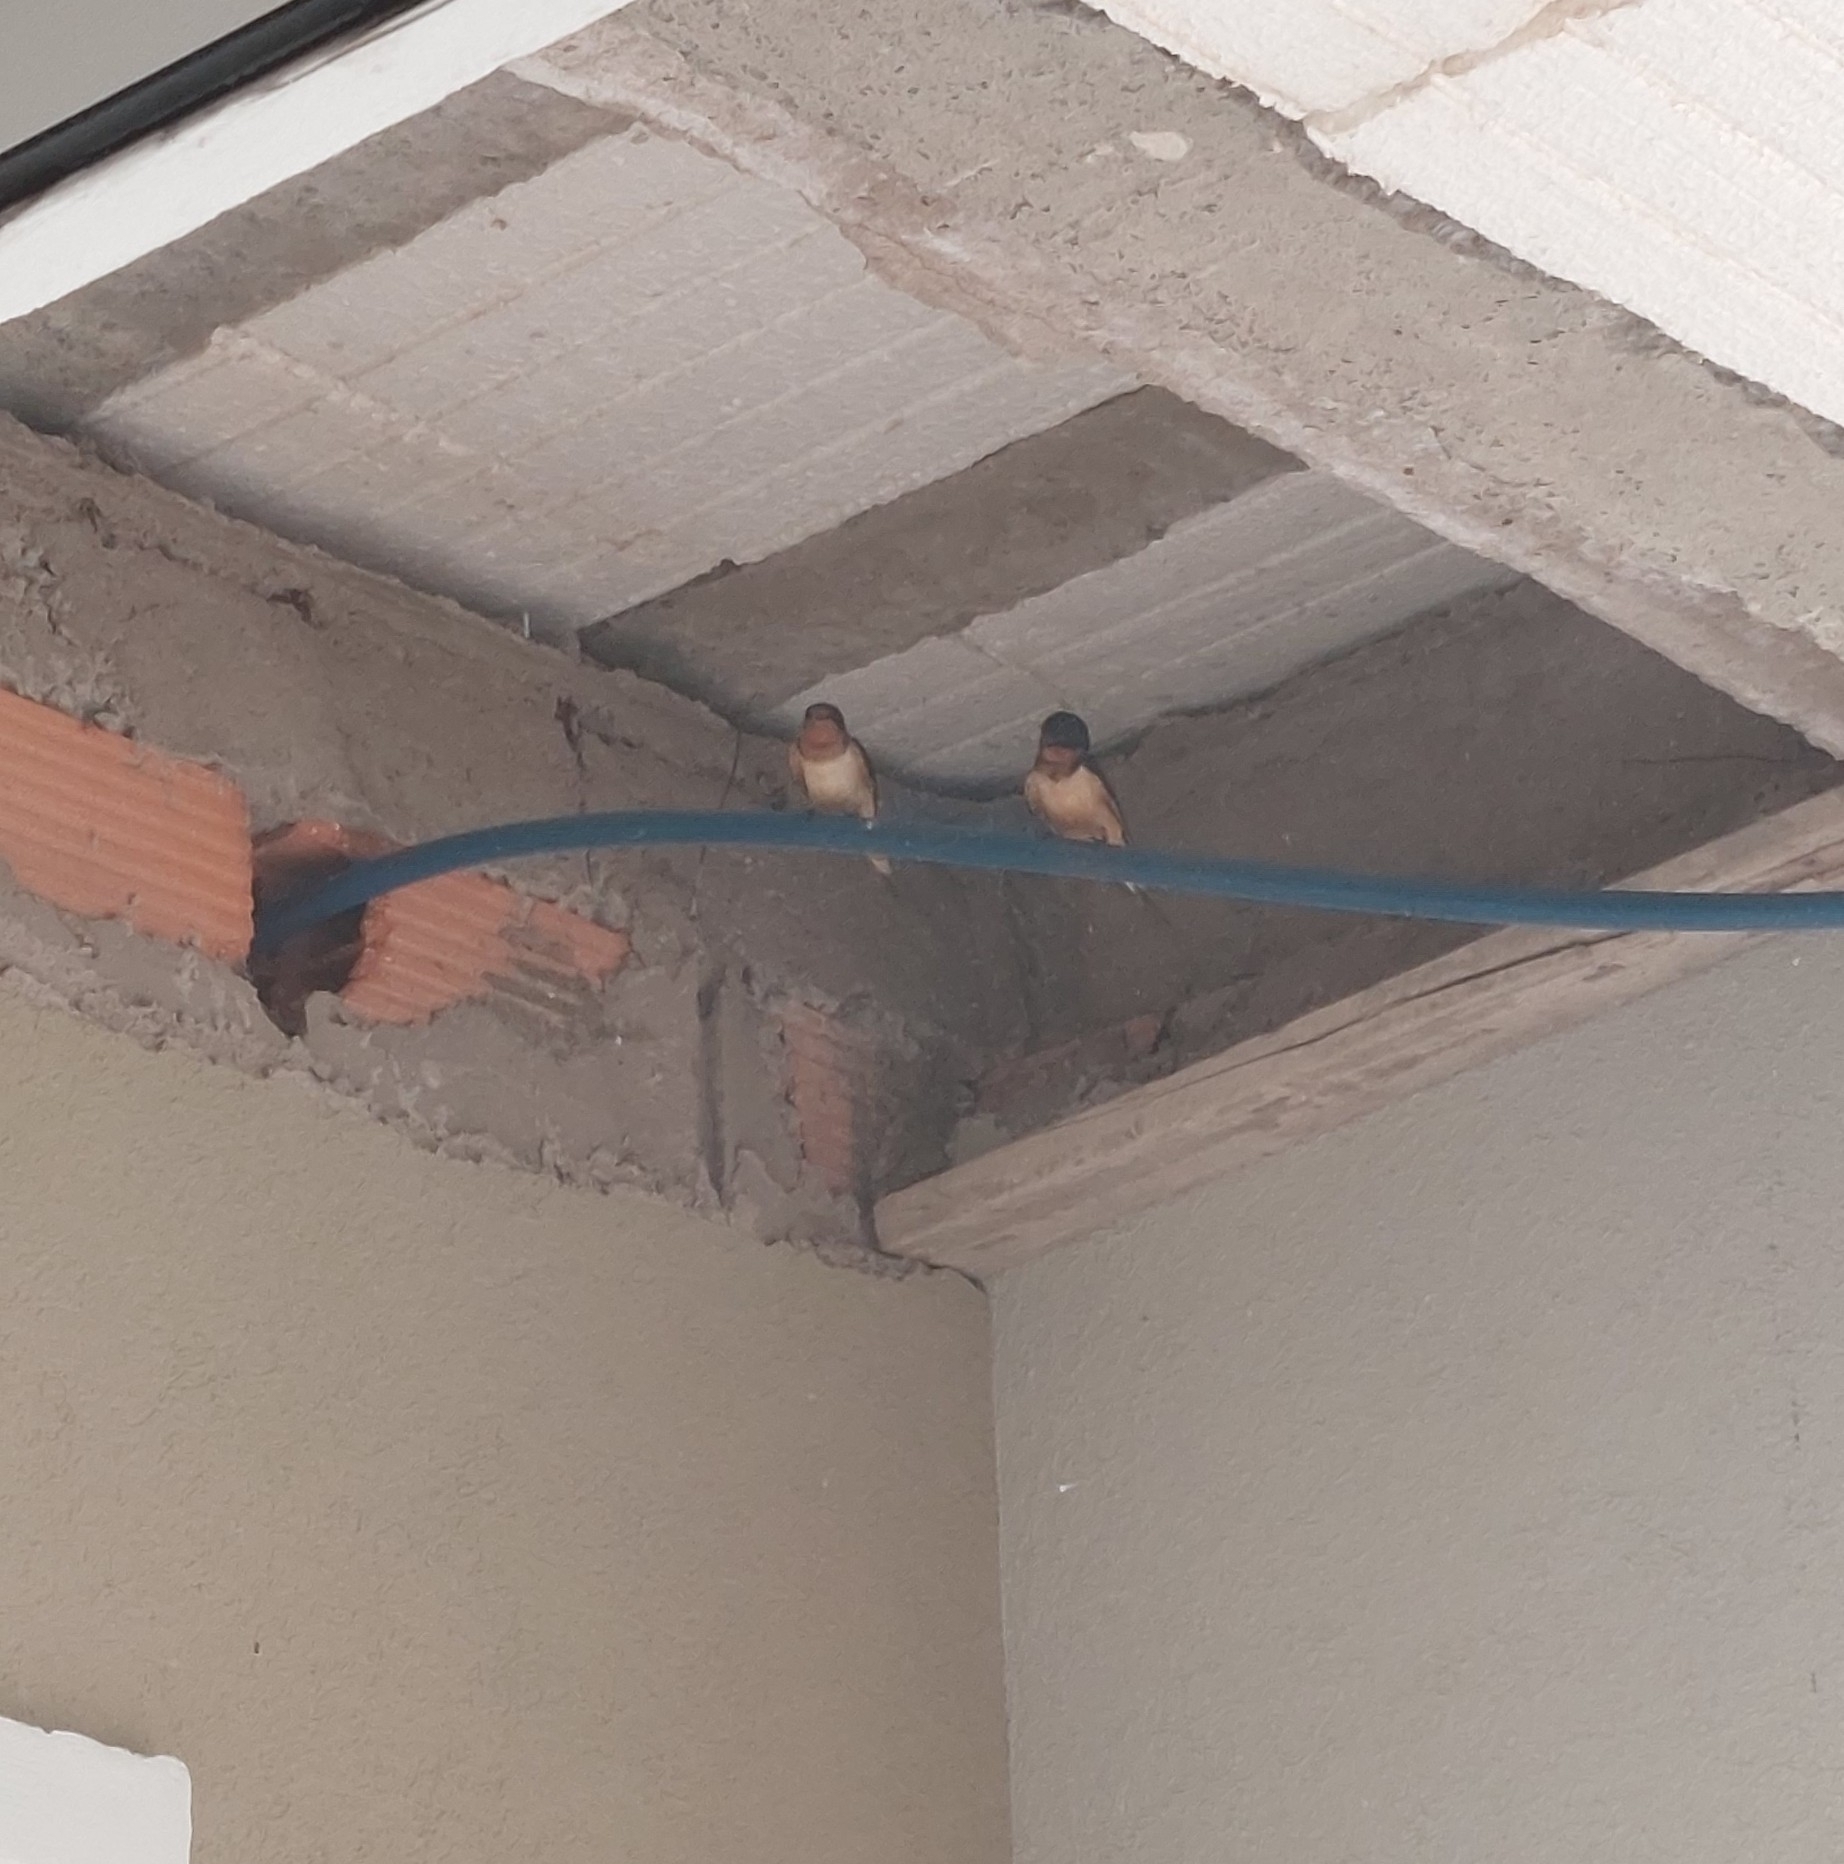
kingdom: Animalia
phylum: Chordata
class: Aves
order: Passeriformes
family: Hirundinidae
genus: Hirundo
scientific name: Hirundo rustica
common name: Barn swallow
